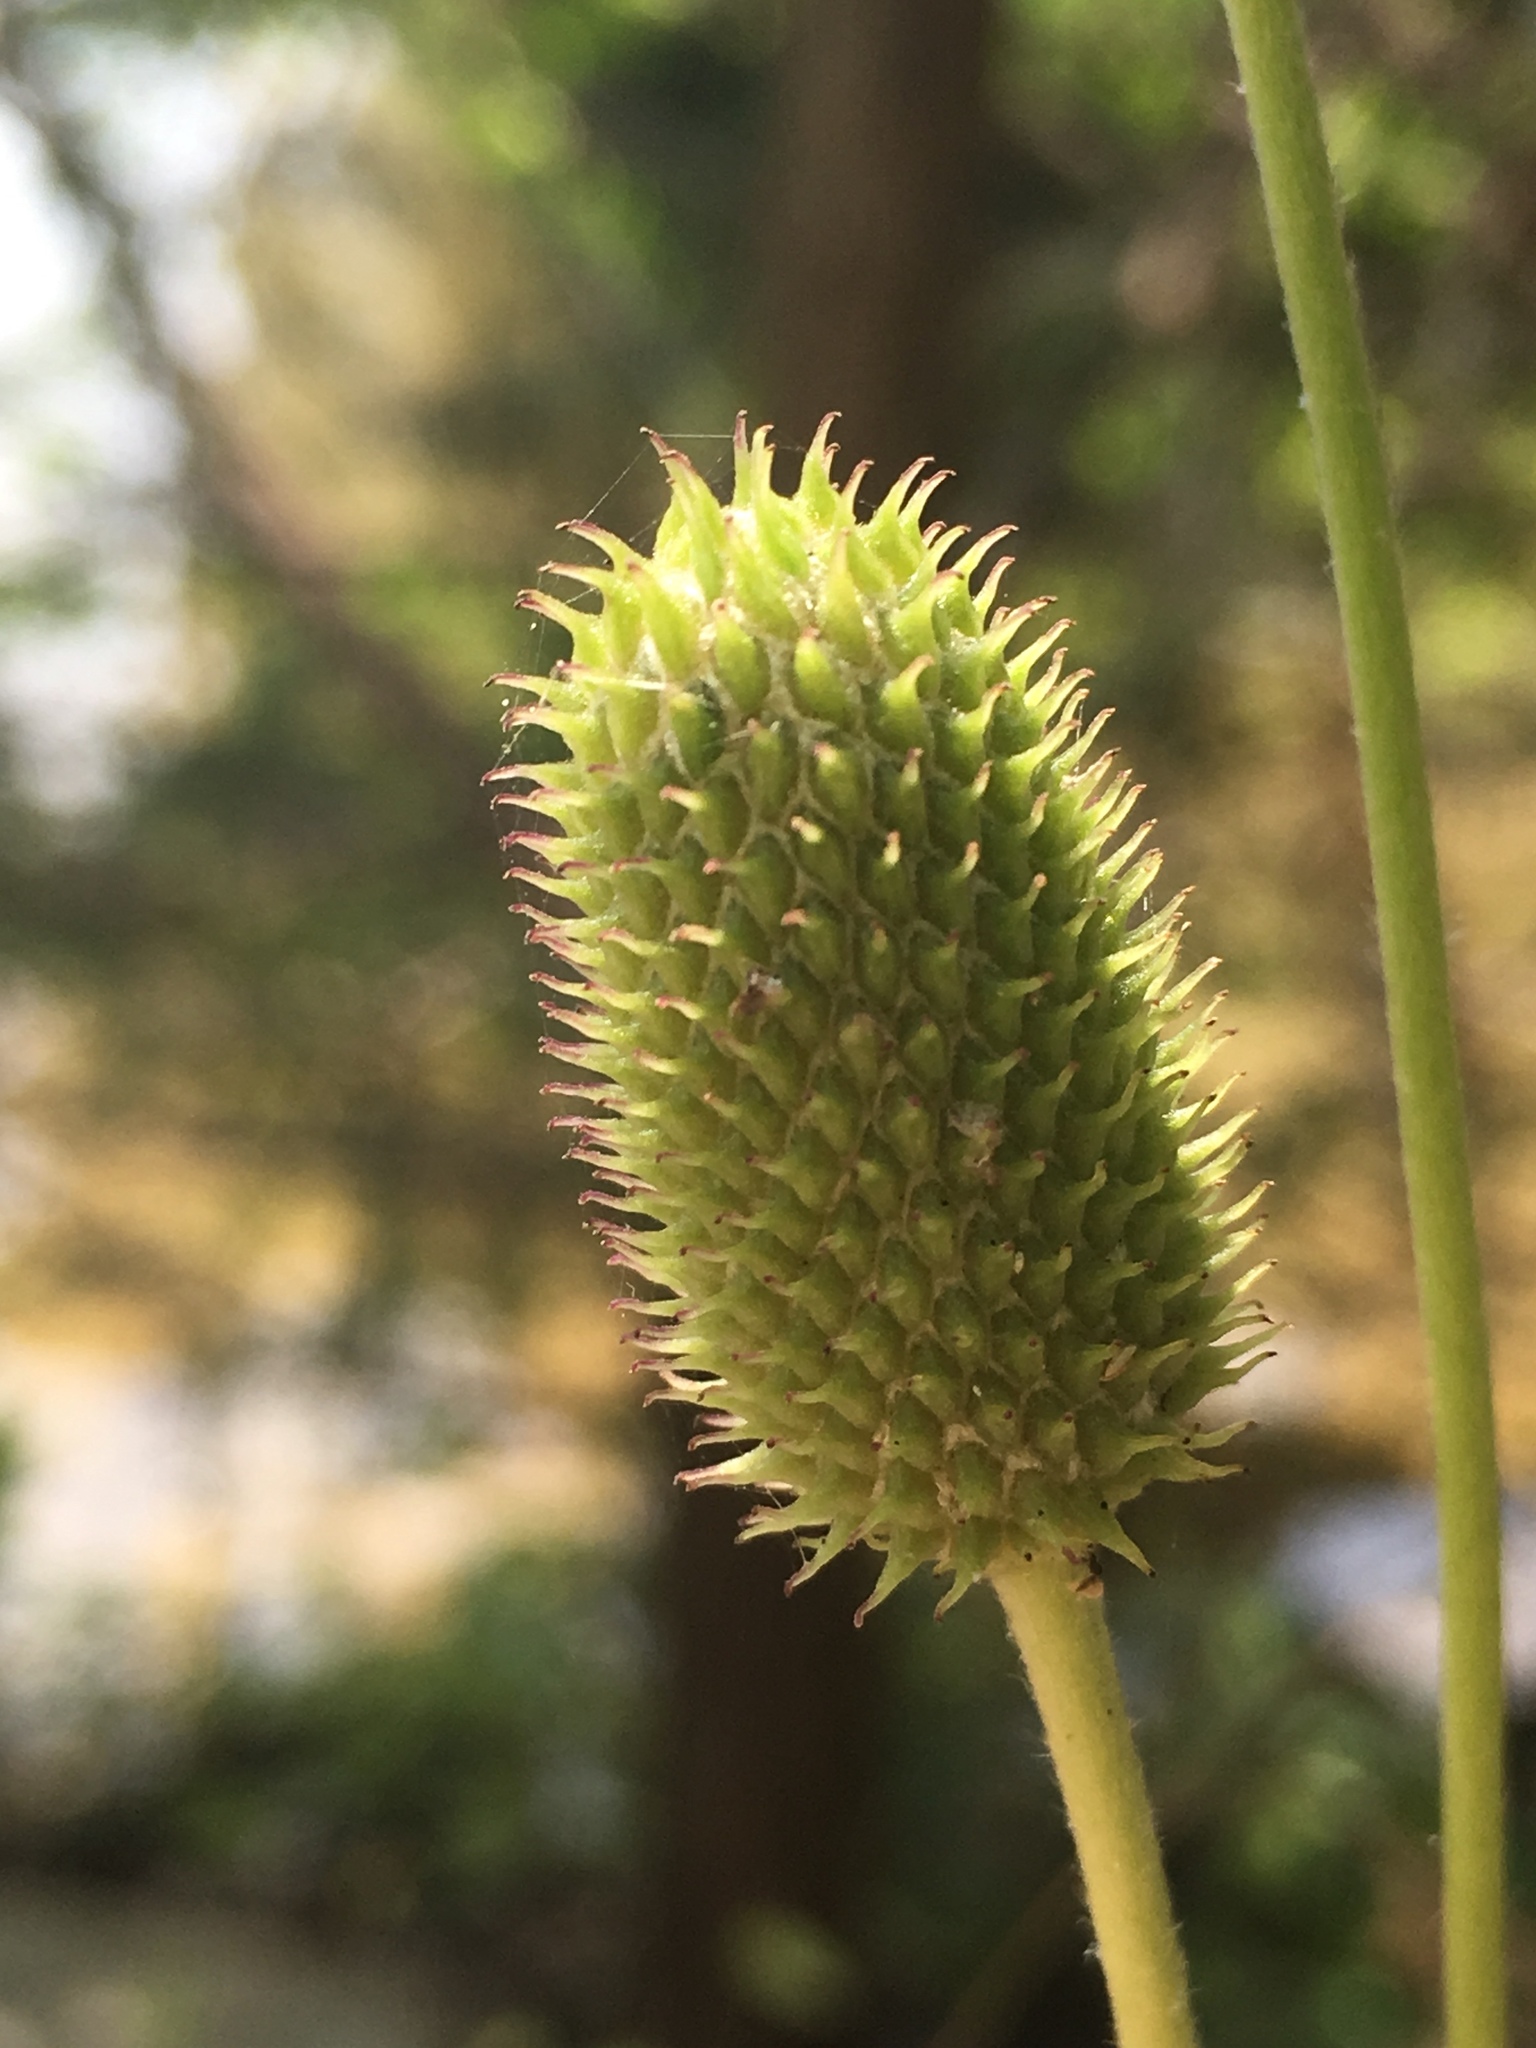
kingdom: Plantae
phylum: Tracheophyta
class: Magnoliopsida
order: Ranunculales
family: Ranunculaceae
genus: Anemone
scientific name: Anemone virginiana
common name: Tall anemone
